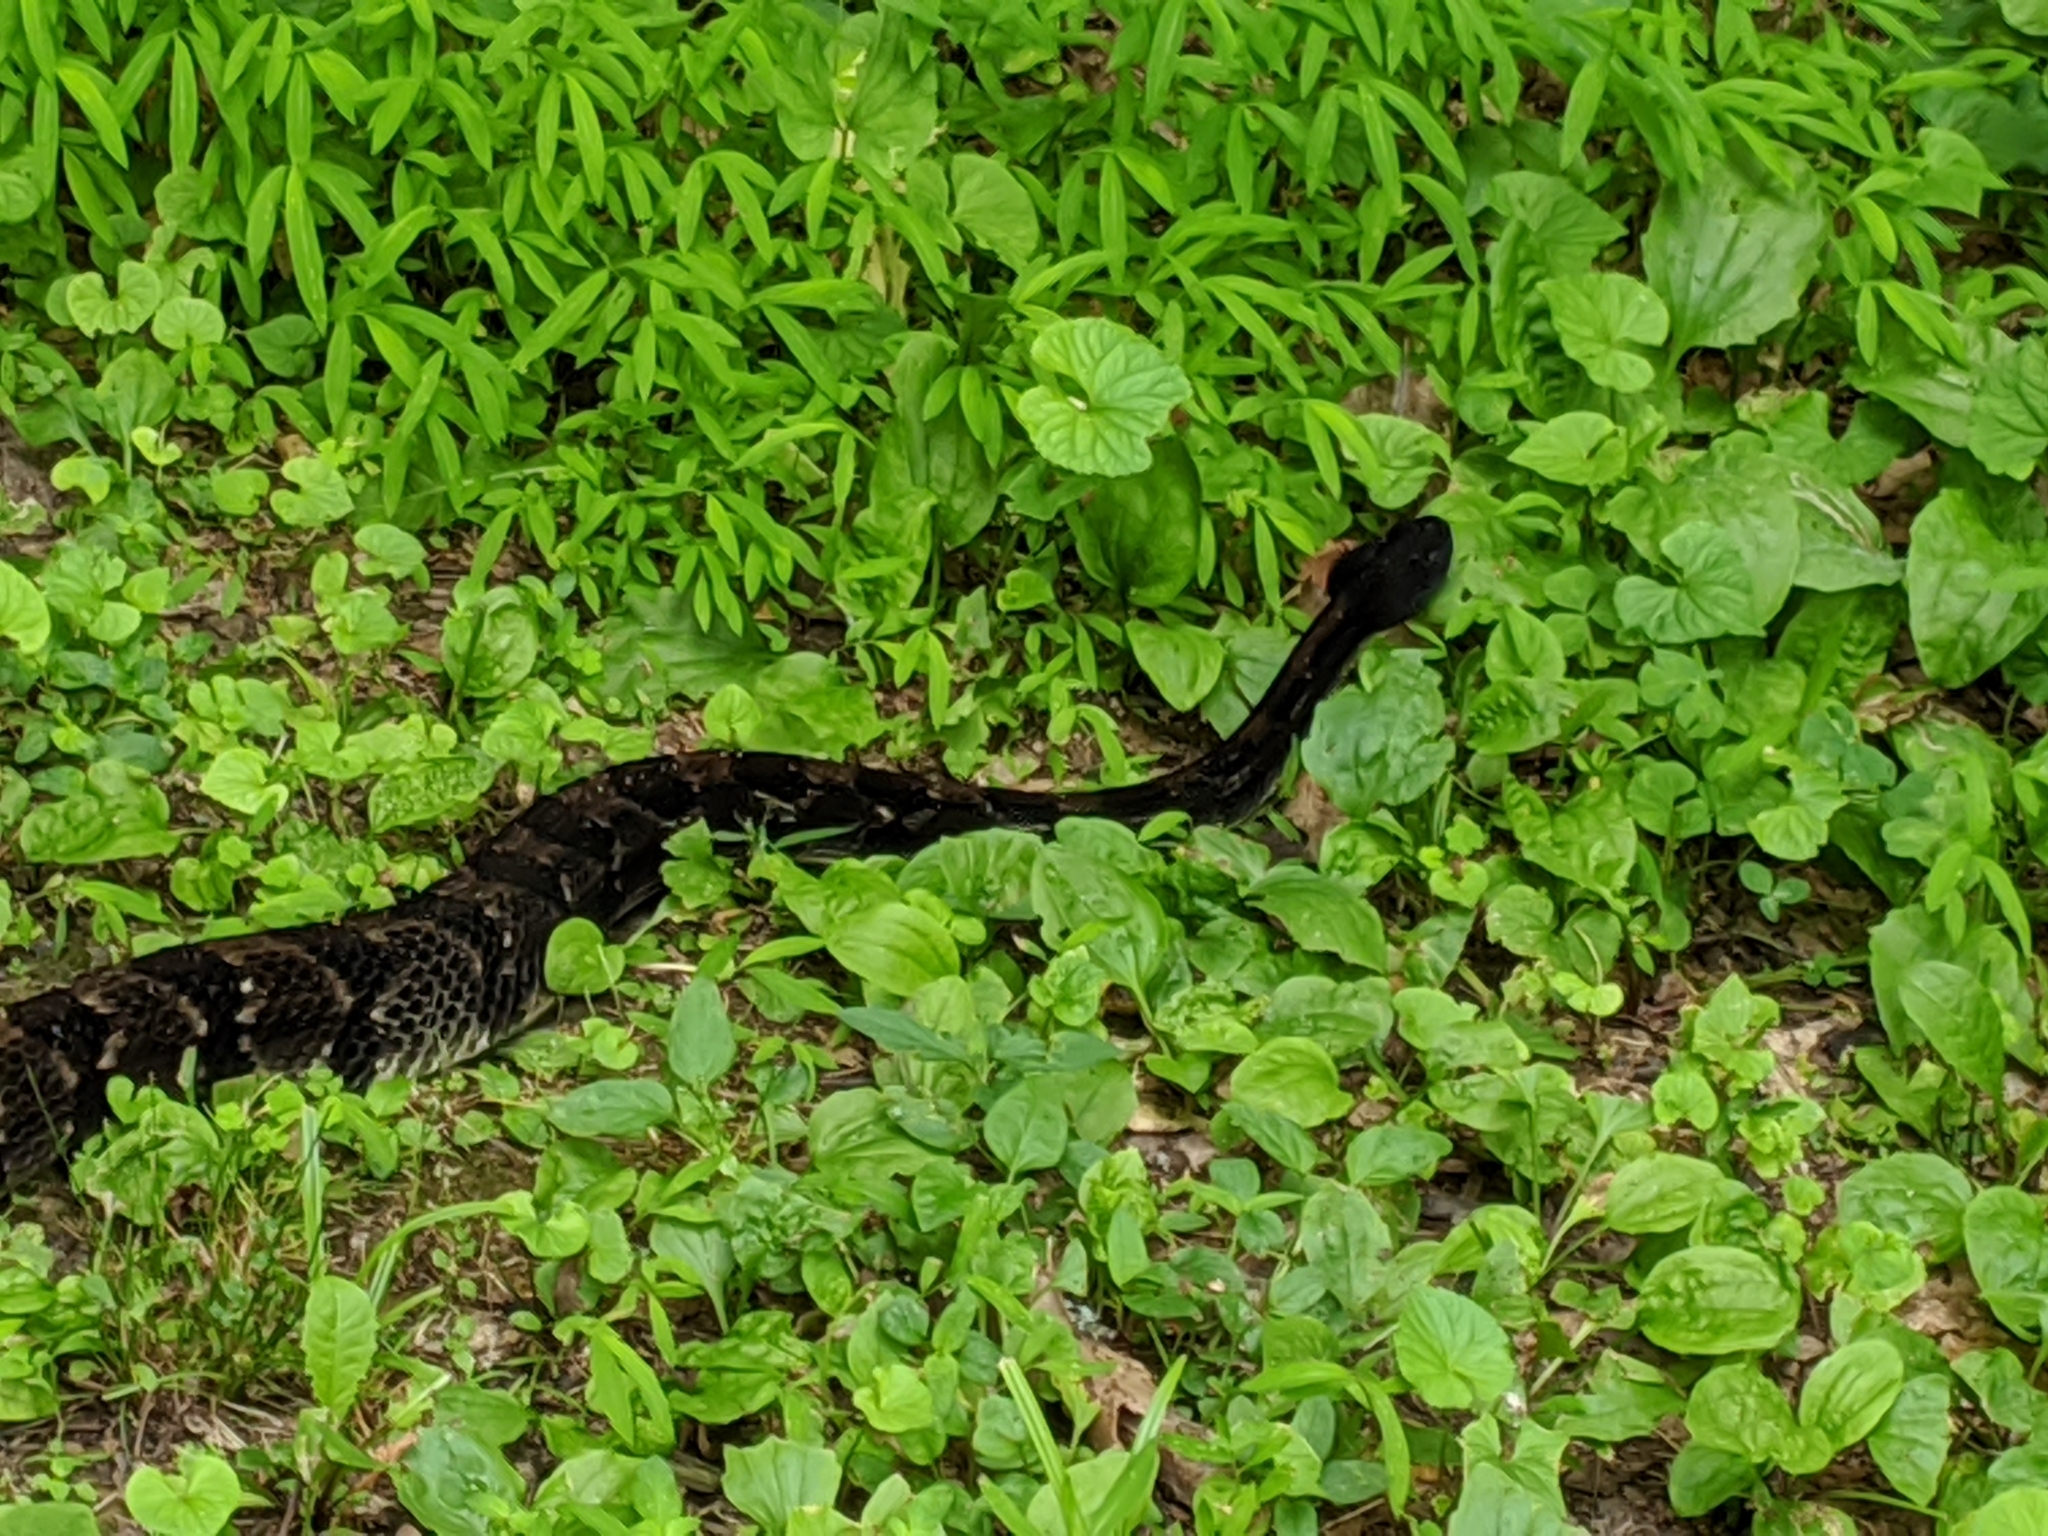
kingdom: Animalia
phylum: Chordata
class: Squamata
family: Viperidae
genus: Crotalus
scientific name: Crotalus horridus
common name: Timber rattlesnake
